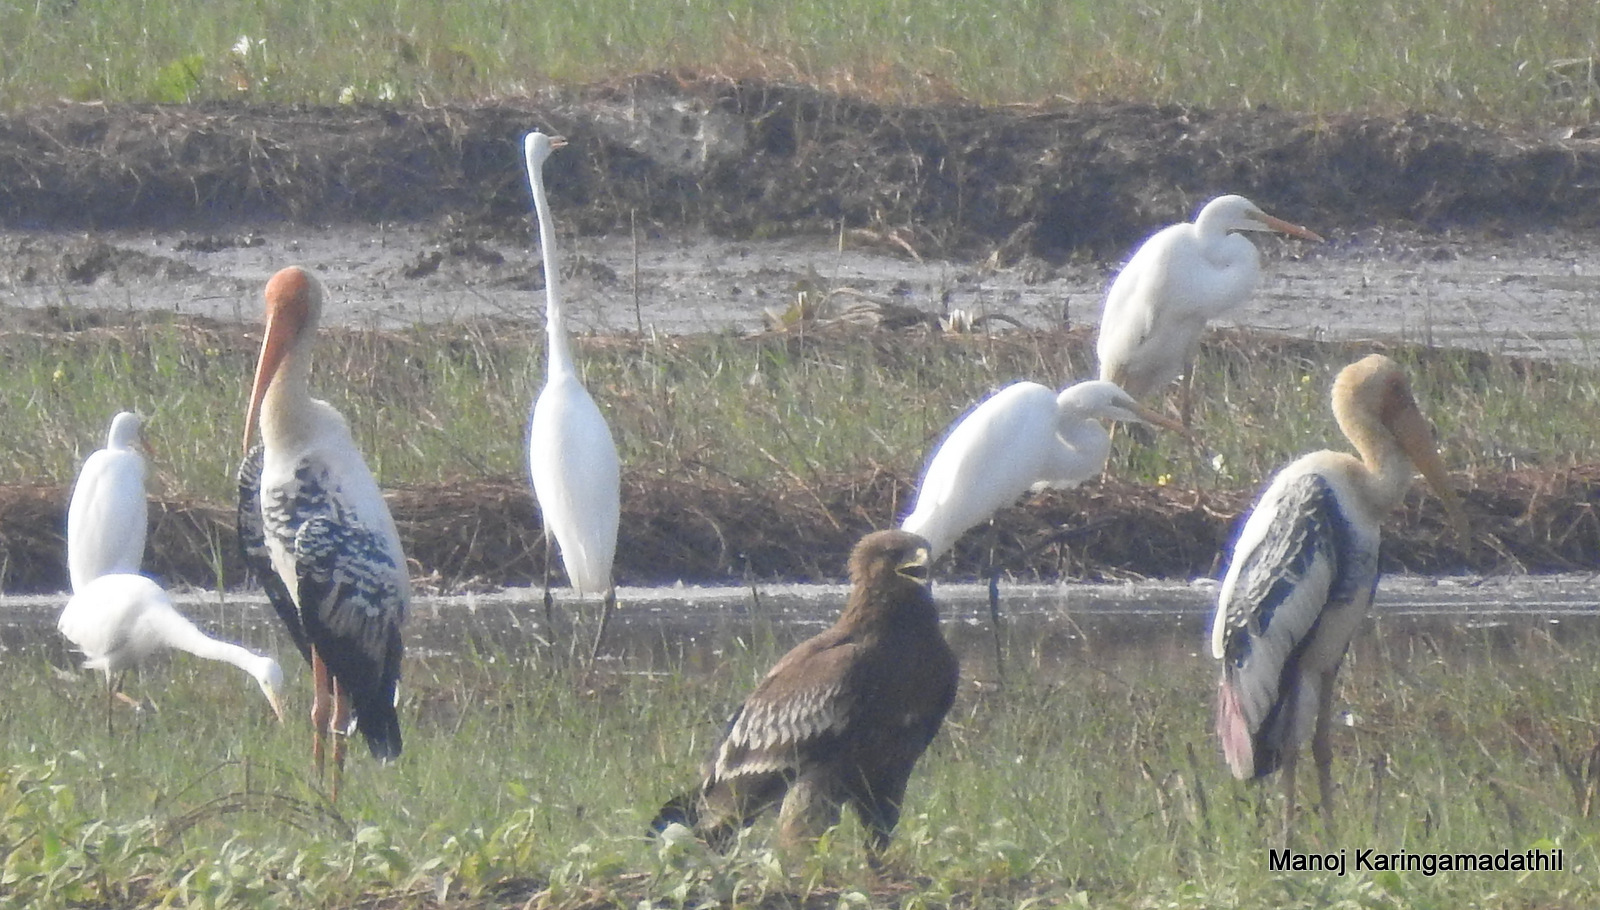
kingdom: Animalia
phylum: Chordata
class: Aves
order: Accipitriformes
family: Accipitridae
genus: Aquila
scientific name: Aquila clanga
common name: Greater spotted eagle
